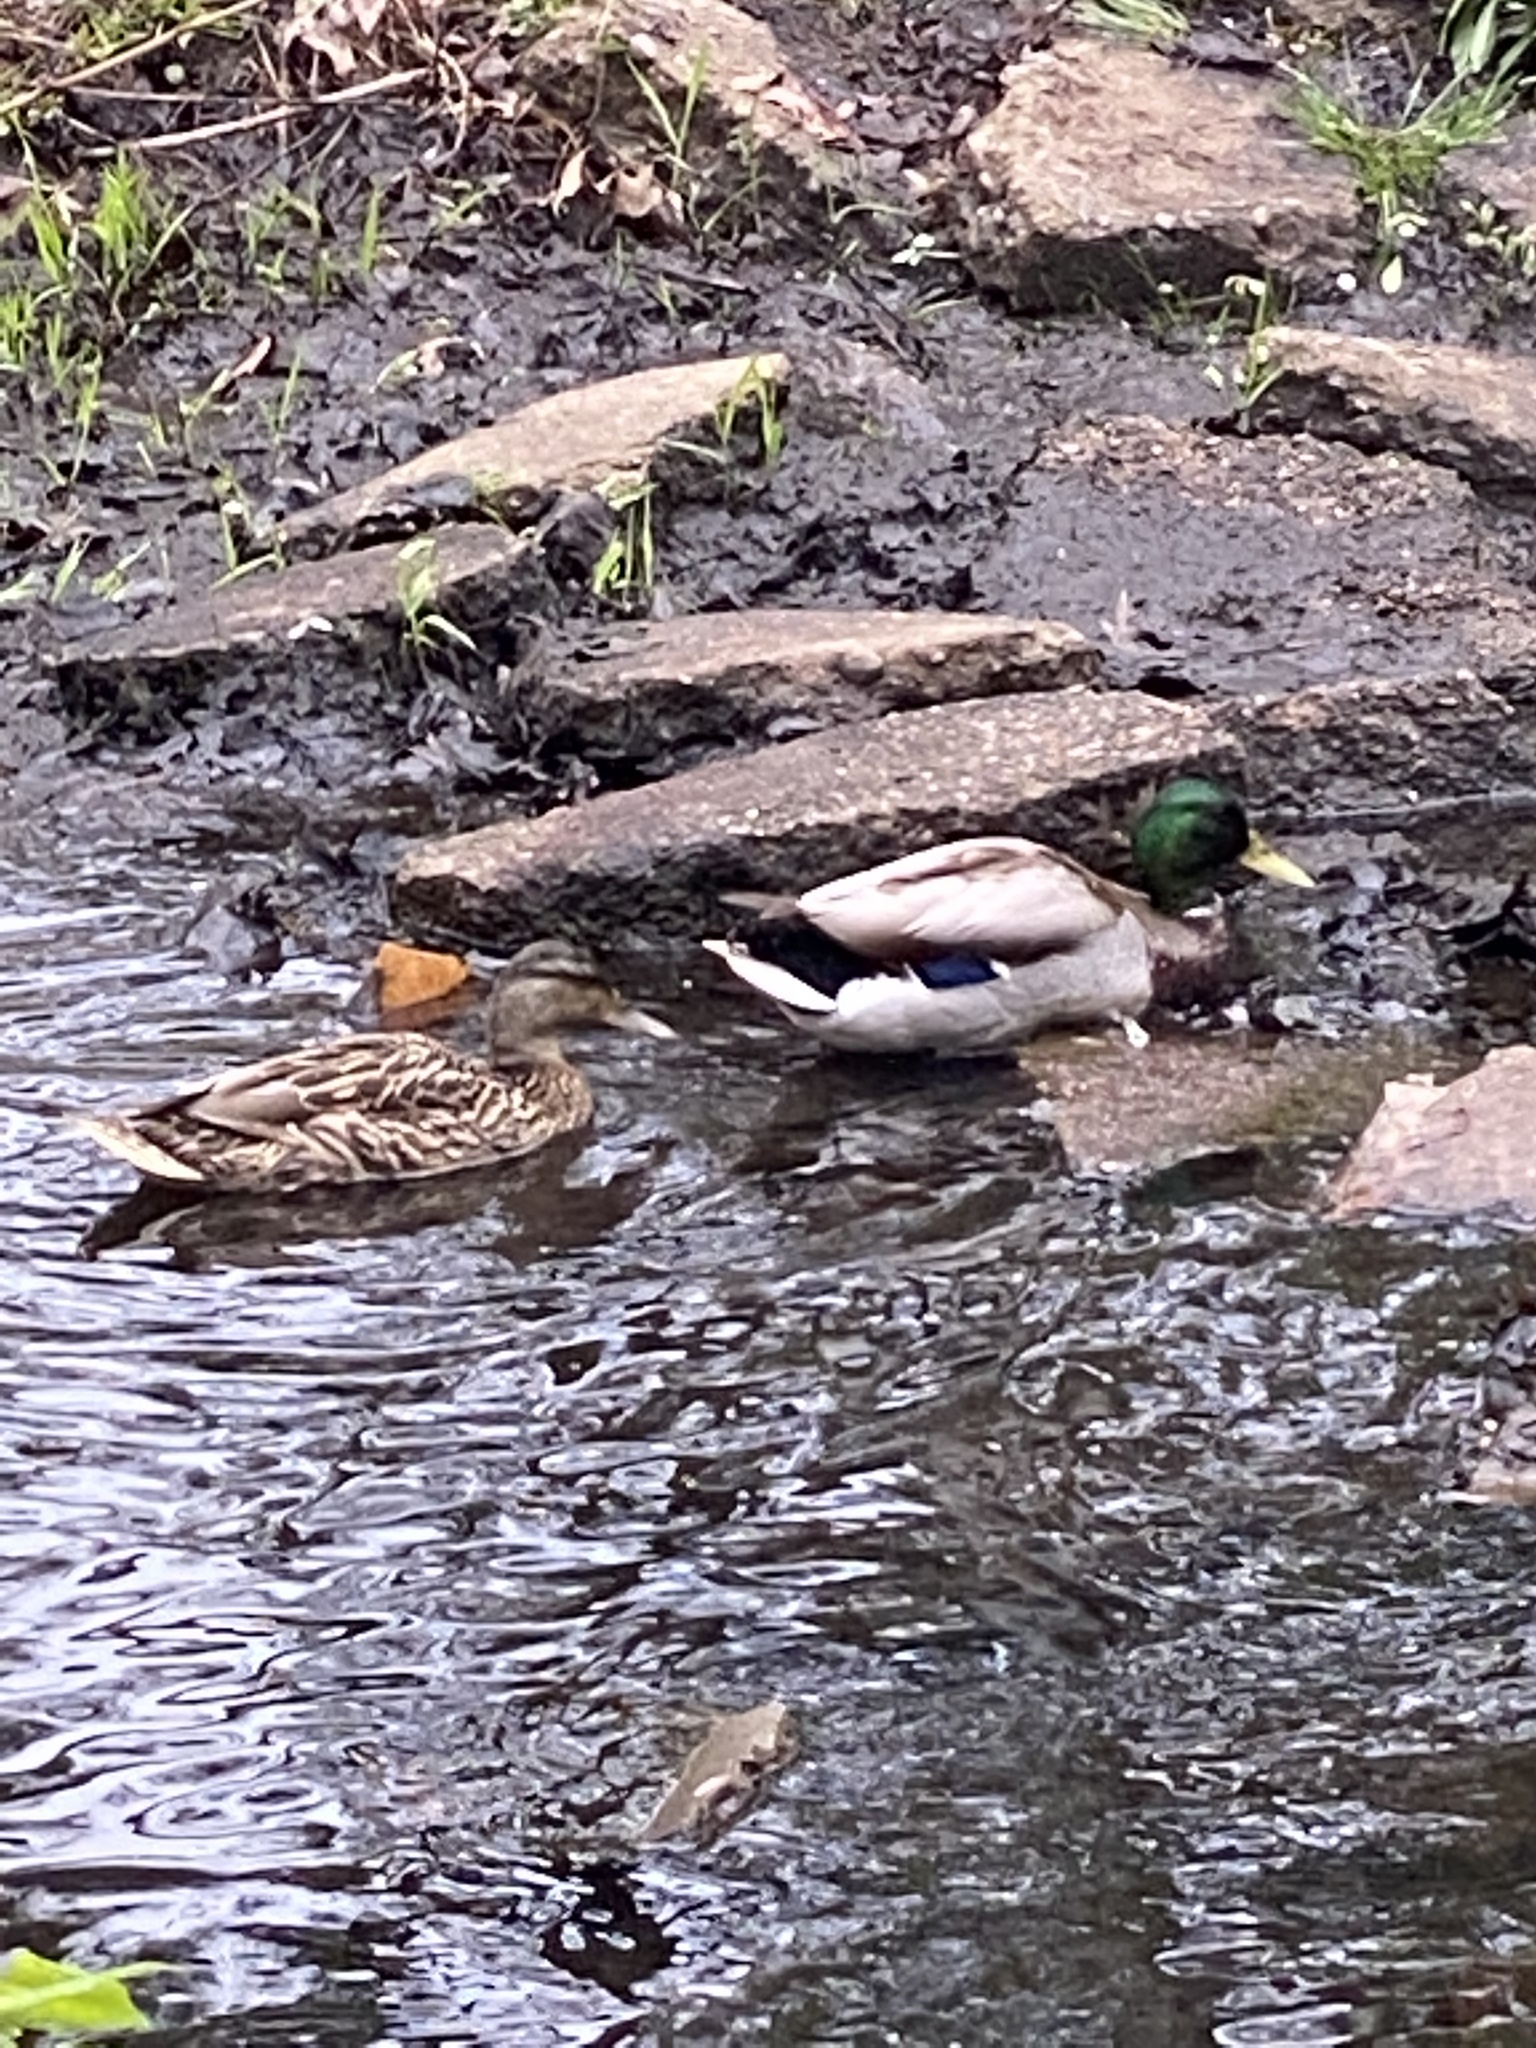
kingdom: Animalia
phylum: Chordata
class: Aves
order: Anseriformes
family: Anatidae
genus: Anas
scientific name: Anas platyrhynchos
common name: Mallard
